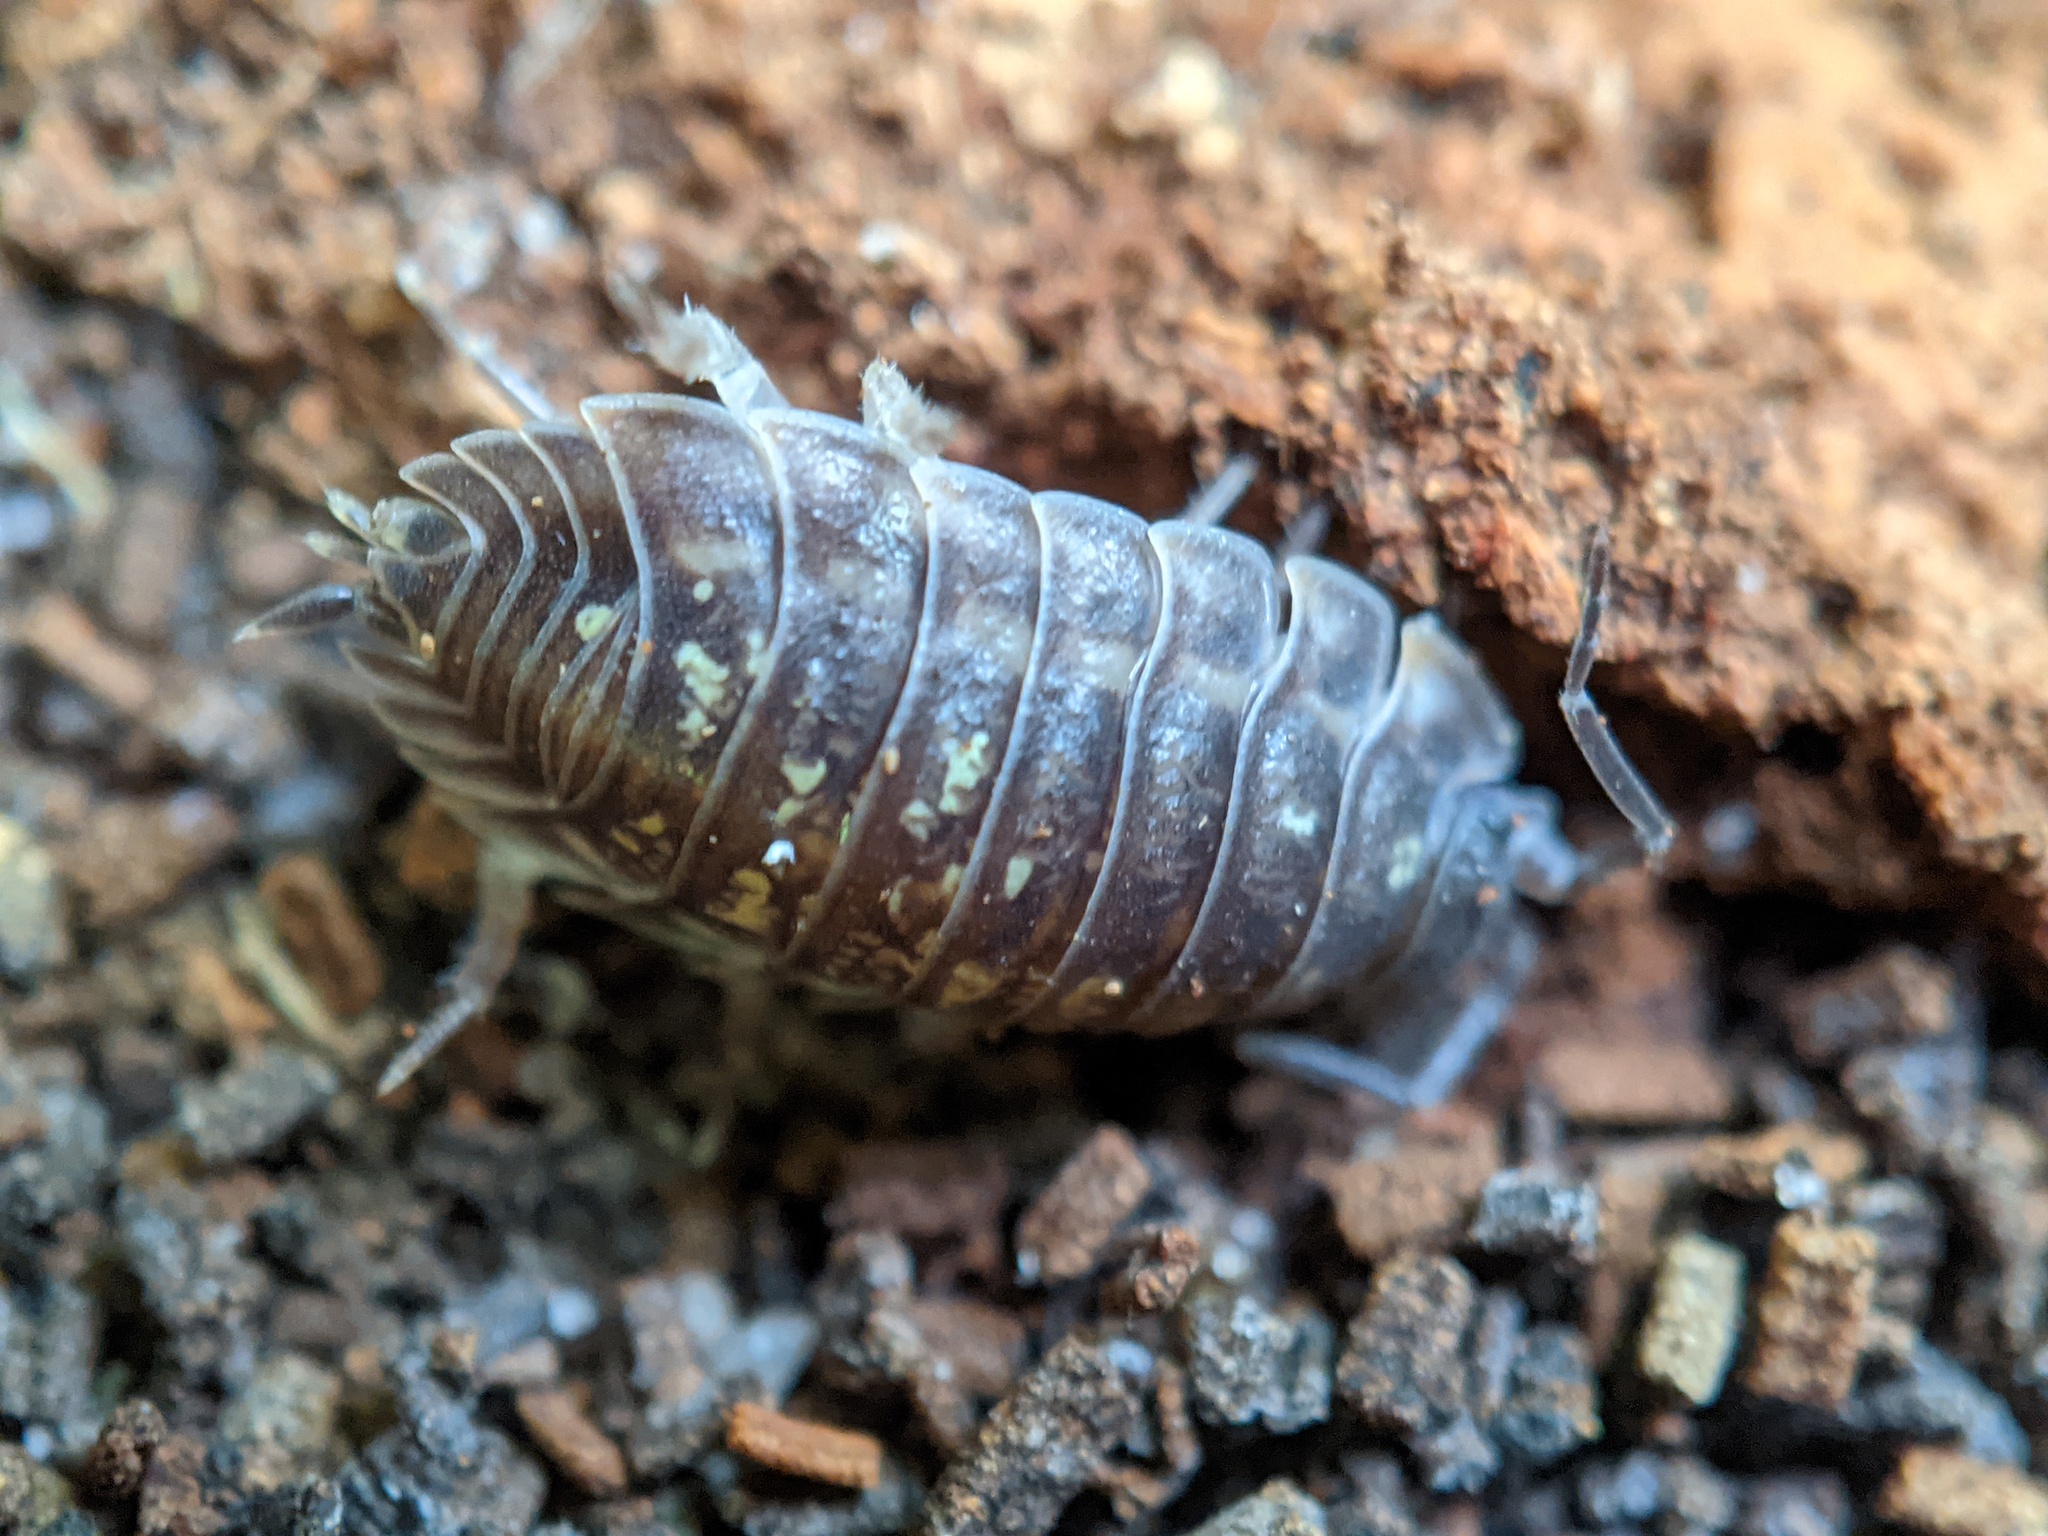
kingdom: Animalia
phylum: Arthropoda
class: Malacostraca
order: Isopoda
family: Oniscidae
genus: Oniscus
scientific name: Oniscus asellus
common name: Common shiny woodlouse
